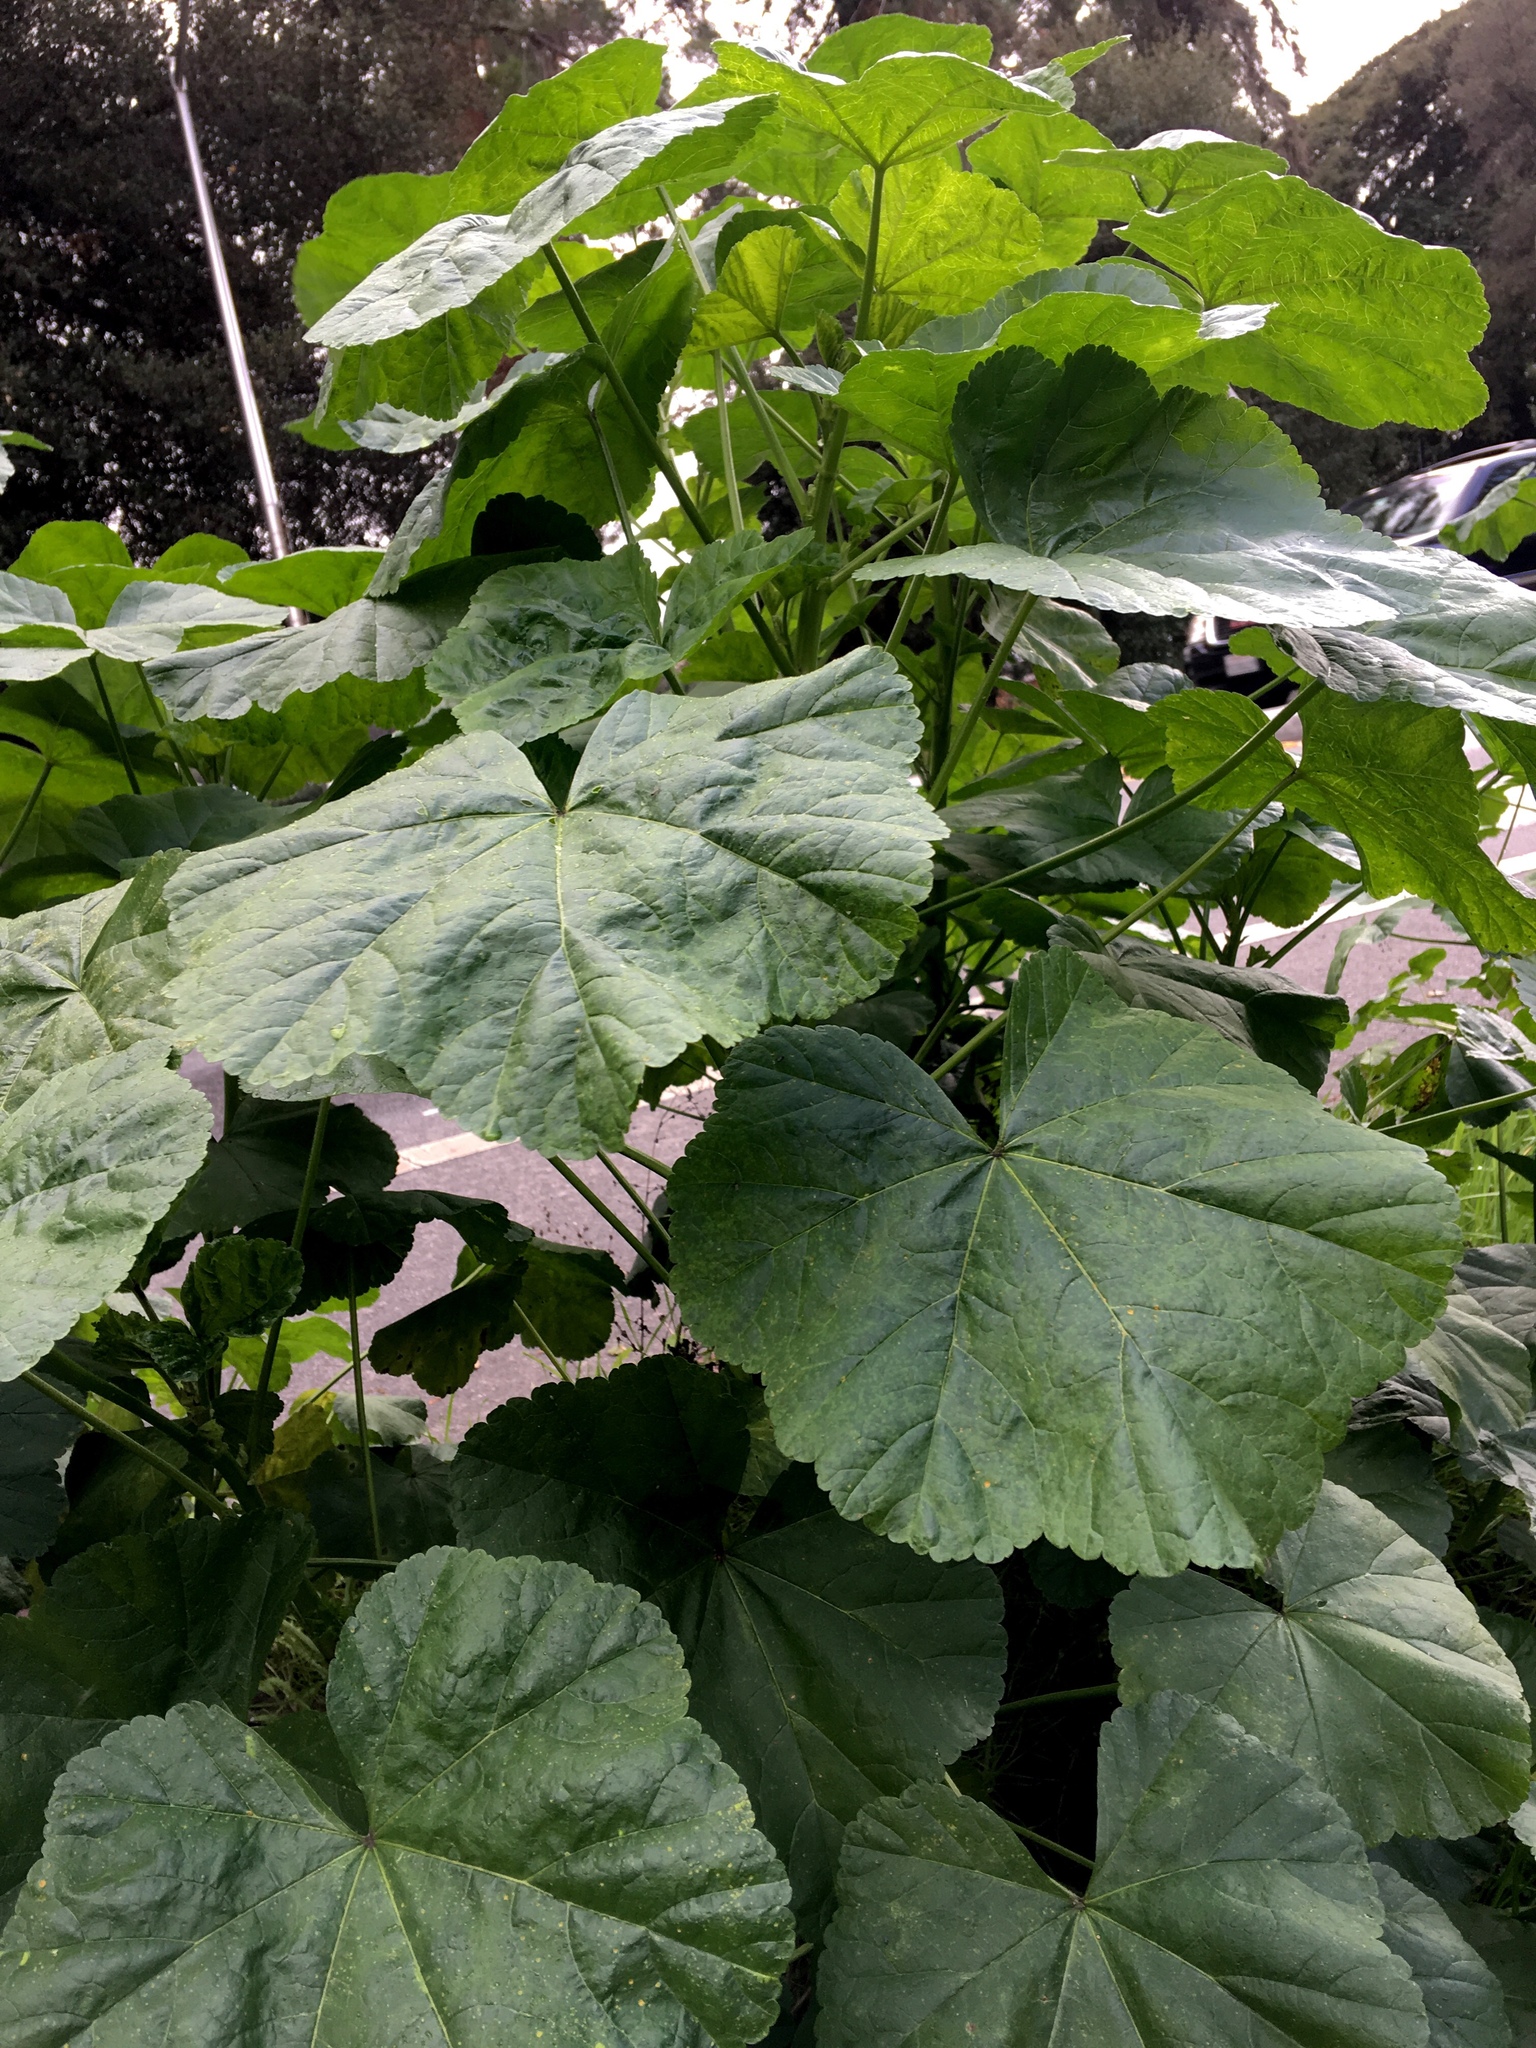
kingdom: Plantae
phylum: Tracheophyta
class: Magnoliopsida
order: Malvales
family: Malvaceae
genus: Malva
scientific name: Malva
